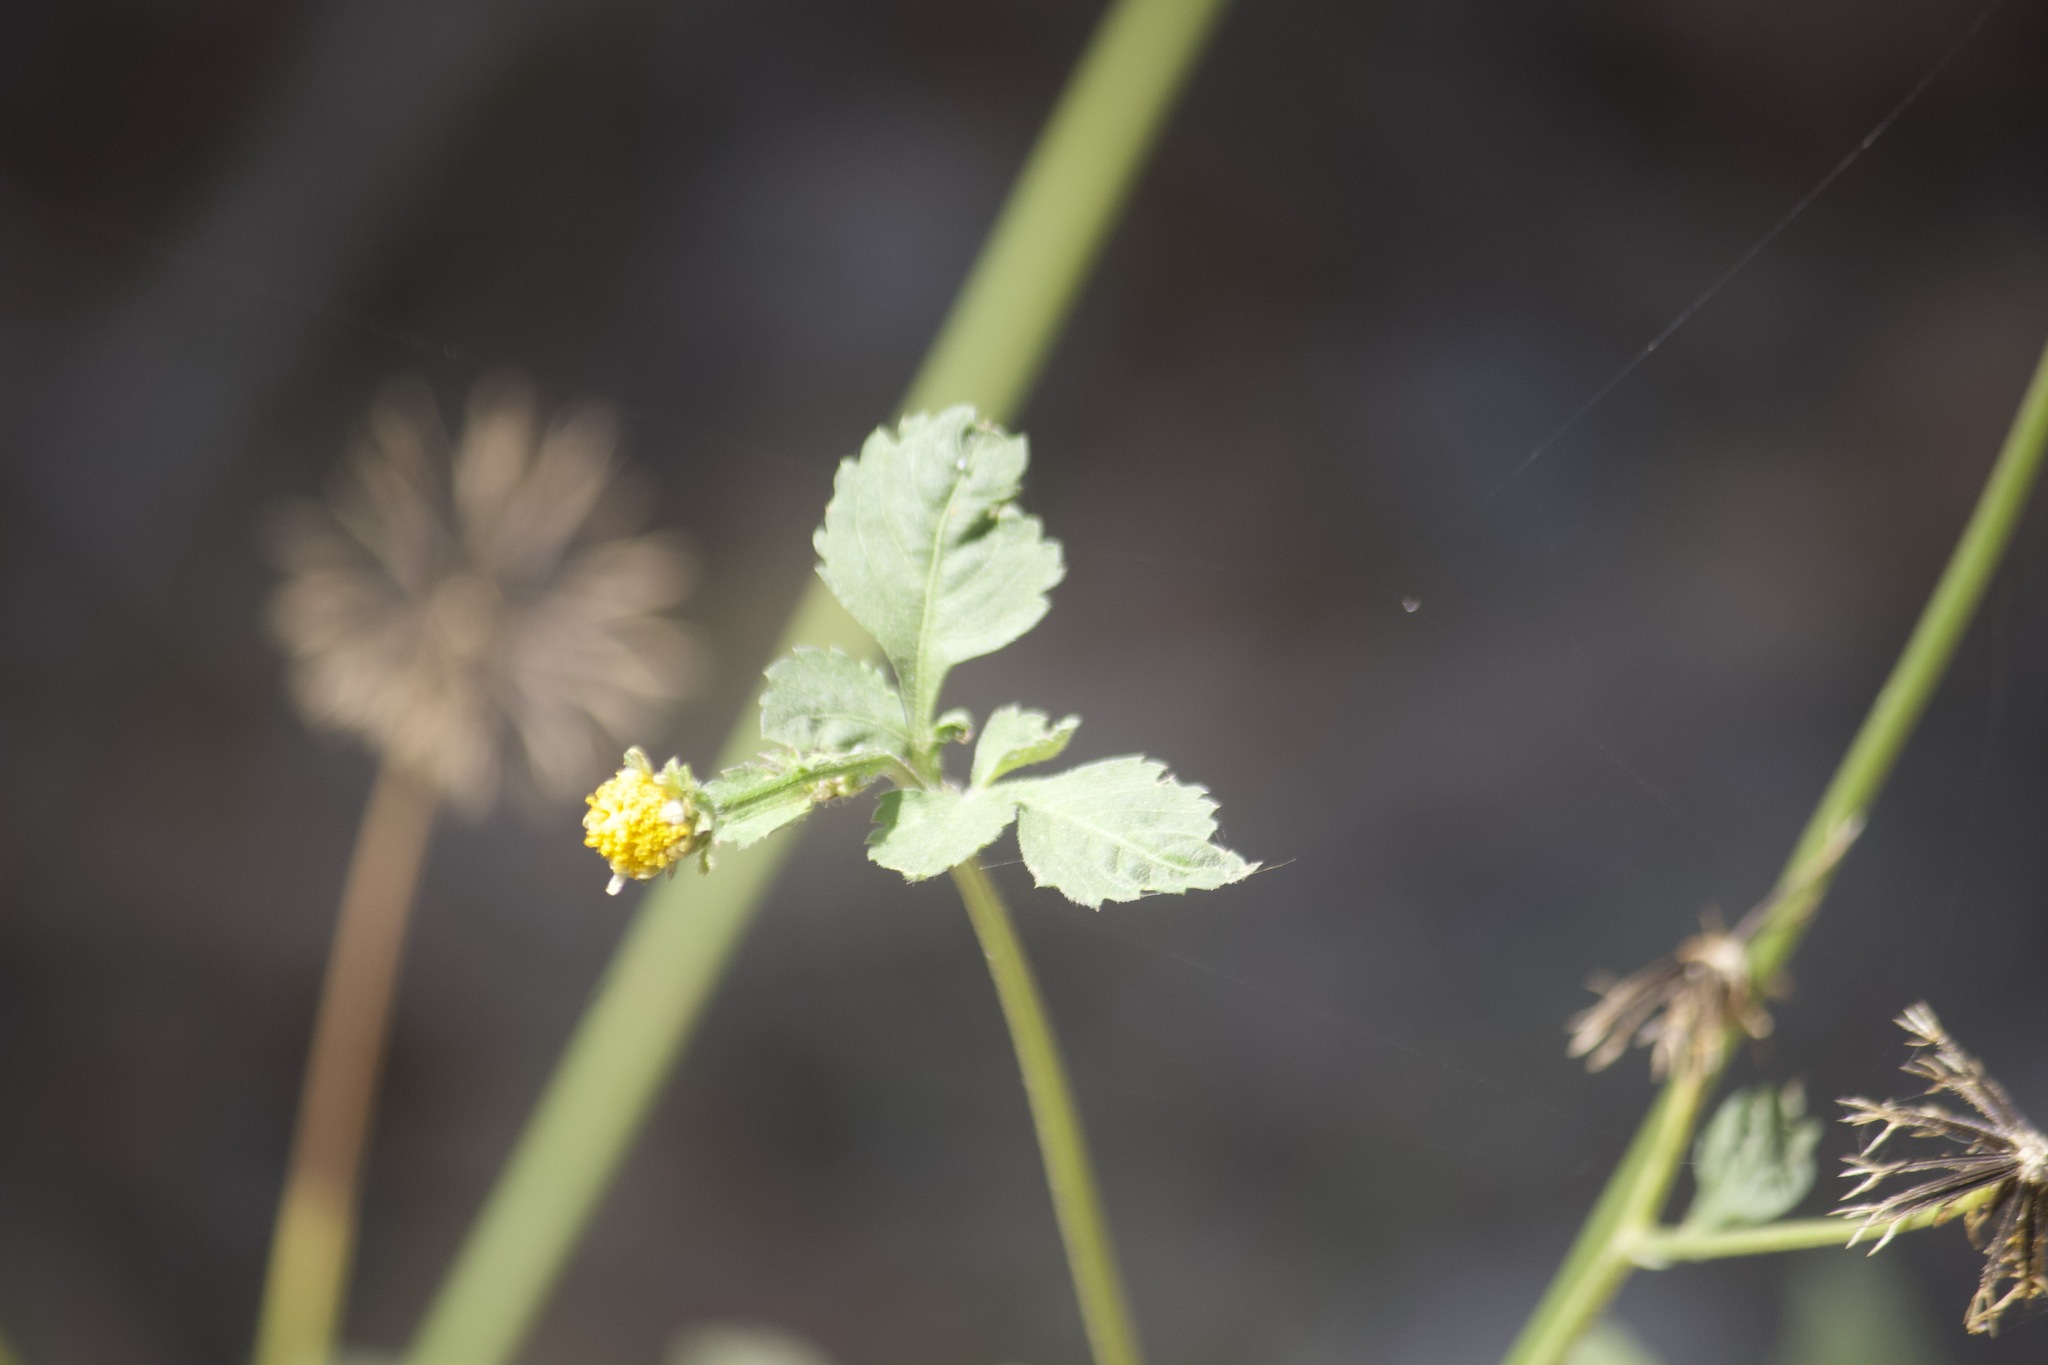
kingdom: Plantae
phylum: Tracheophyta
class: Magnoliopsida
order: Asterales
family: Asteraceae
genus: Bidens
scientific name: Bidens pilosa
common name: Black-jack
